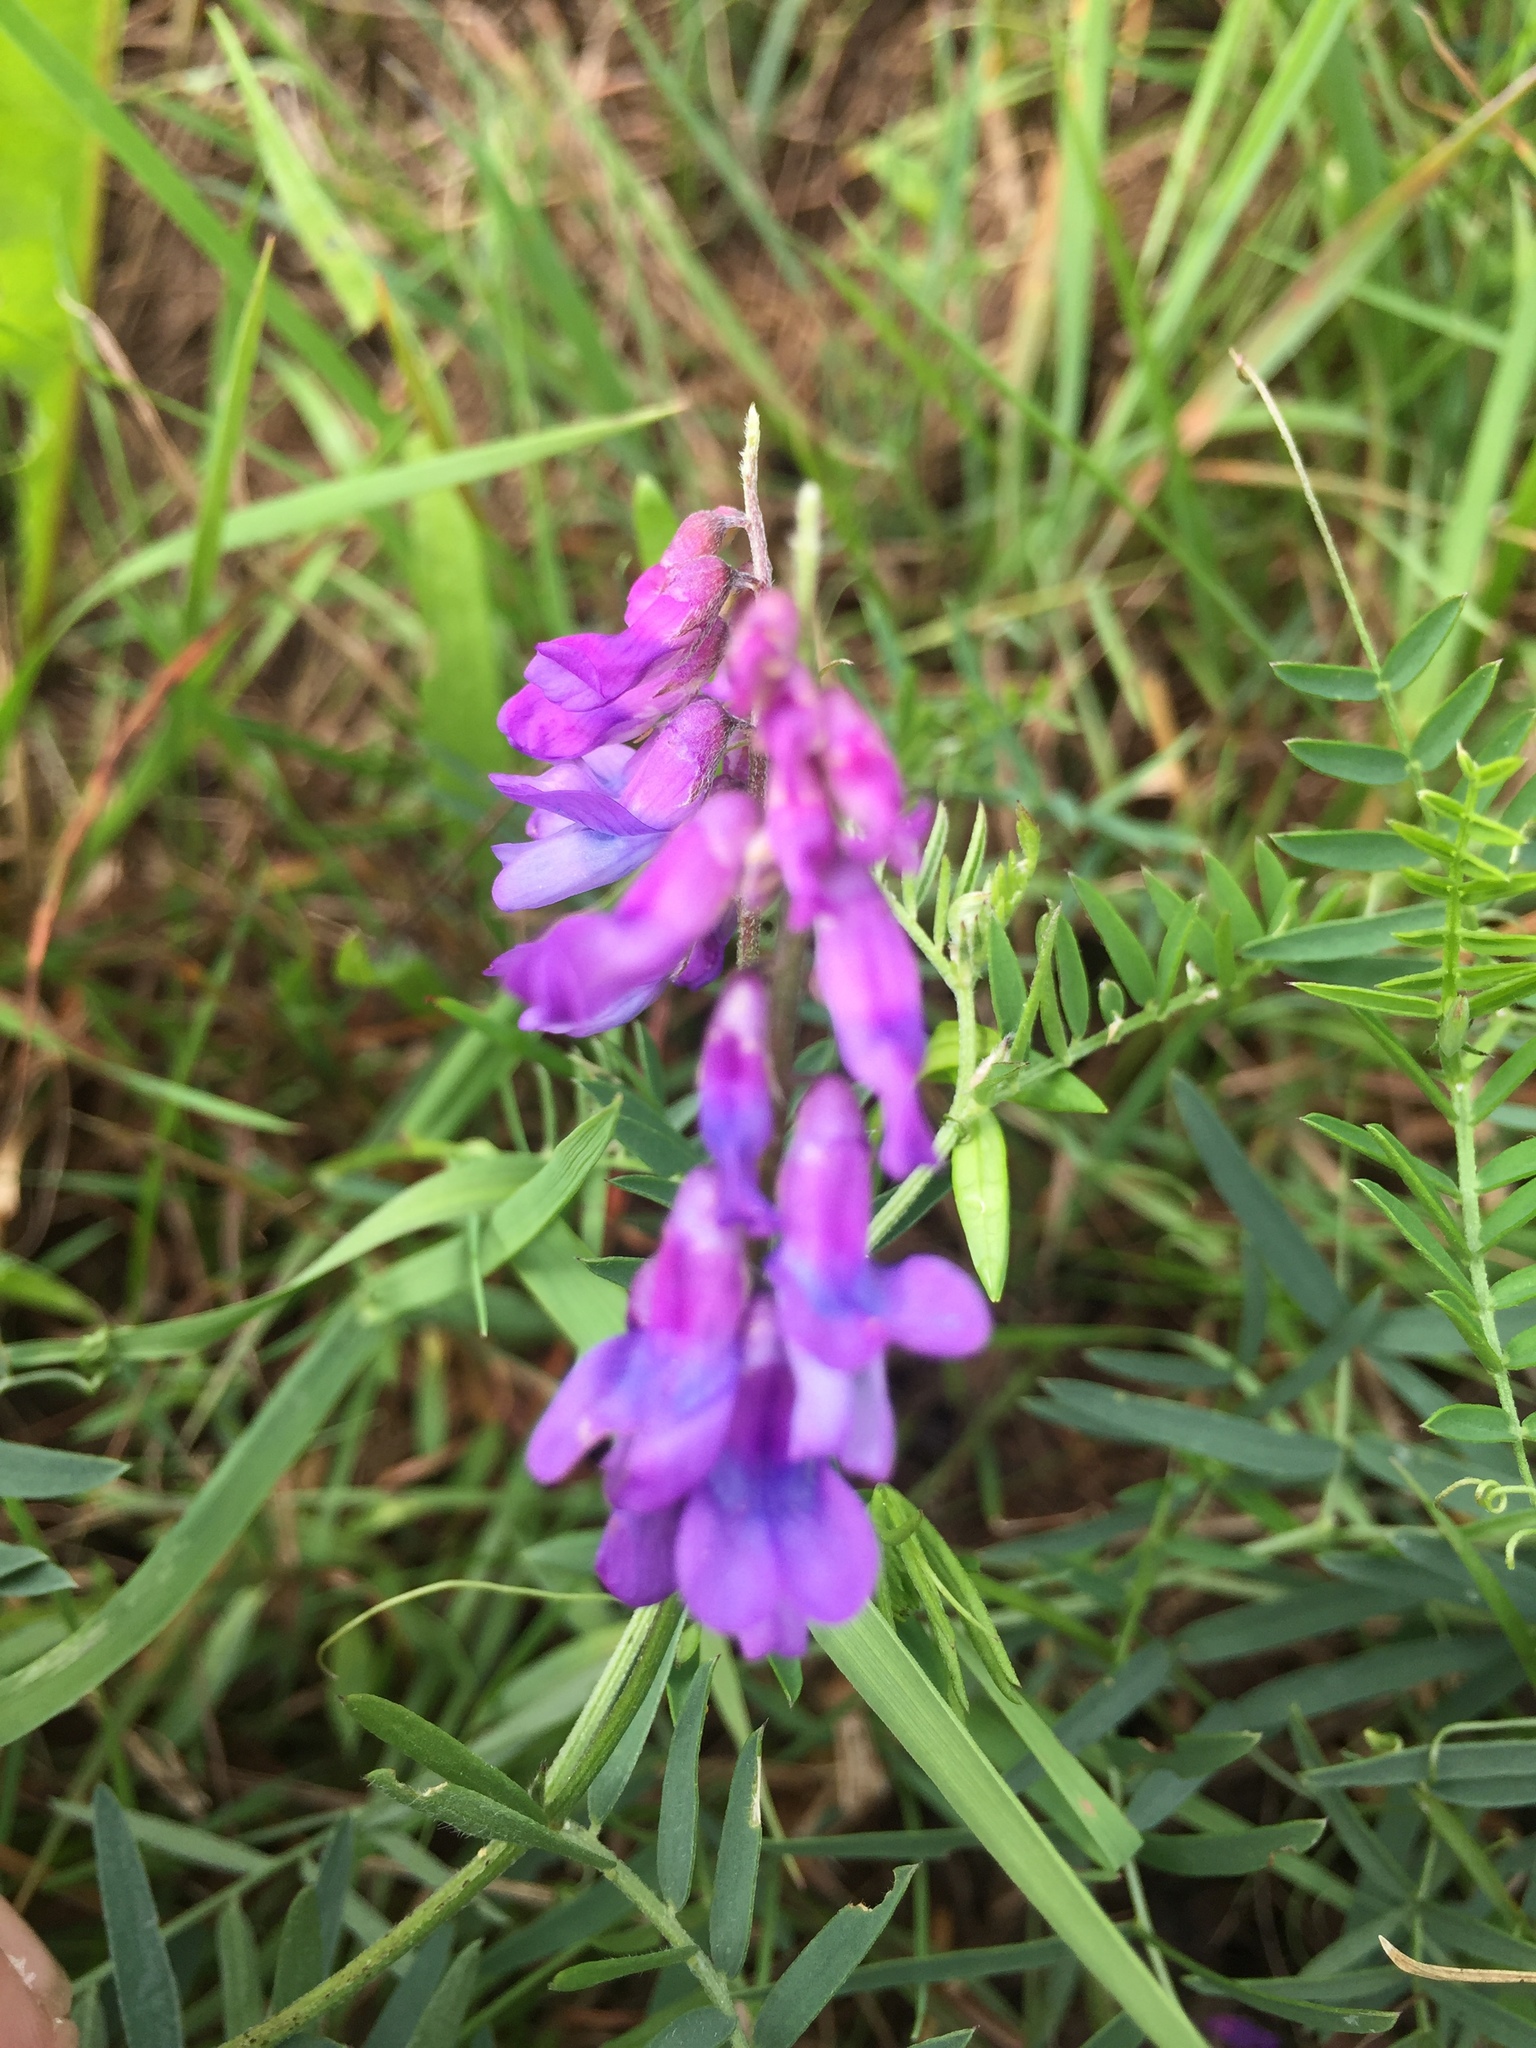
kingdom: Plantae
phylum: Tracheophyta
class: Magnoliopsida
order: Fabales
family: Fabaceae
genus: Vicia
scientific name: Vicia cracca
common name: Bird vetch
